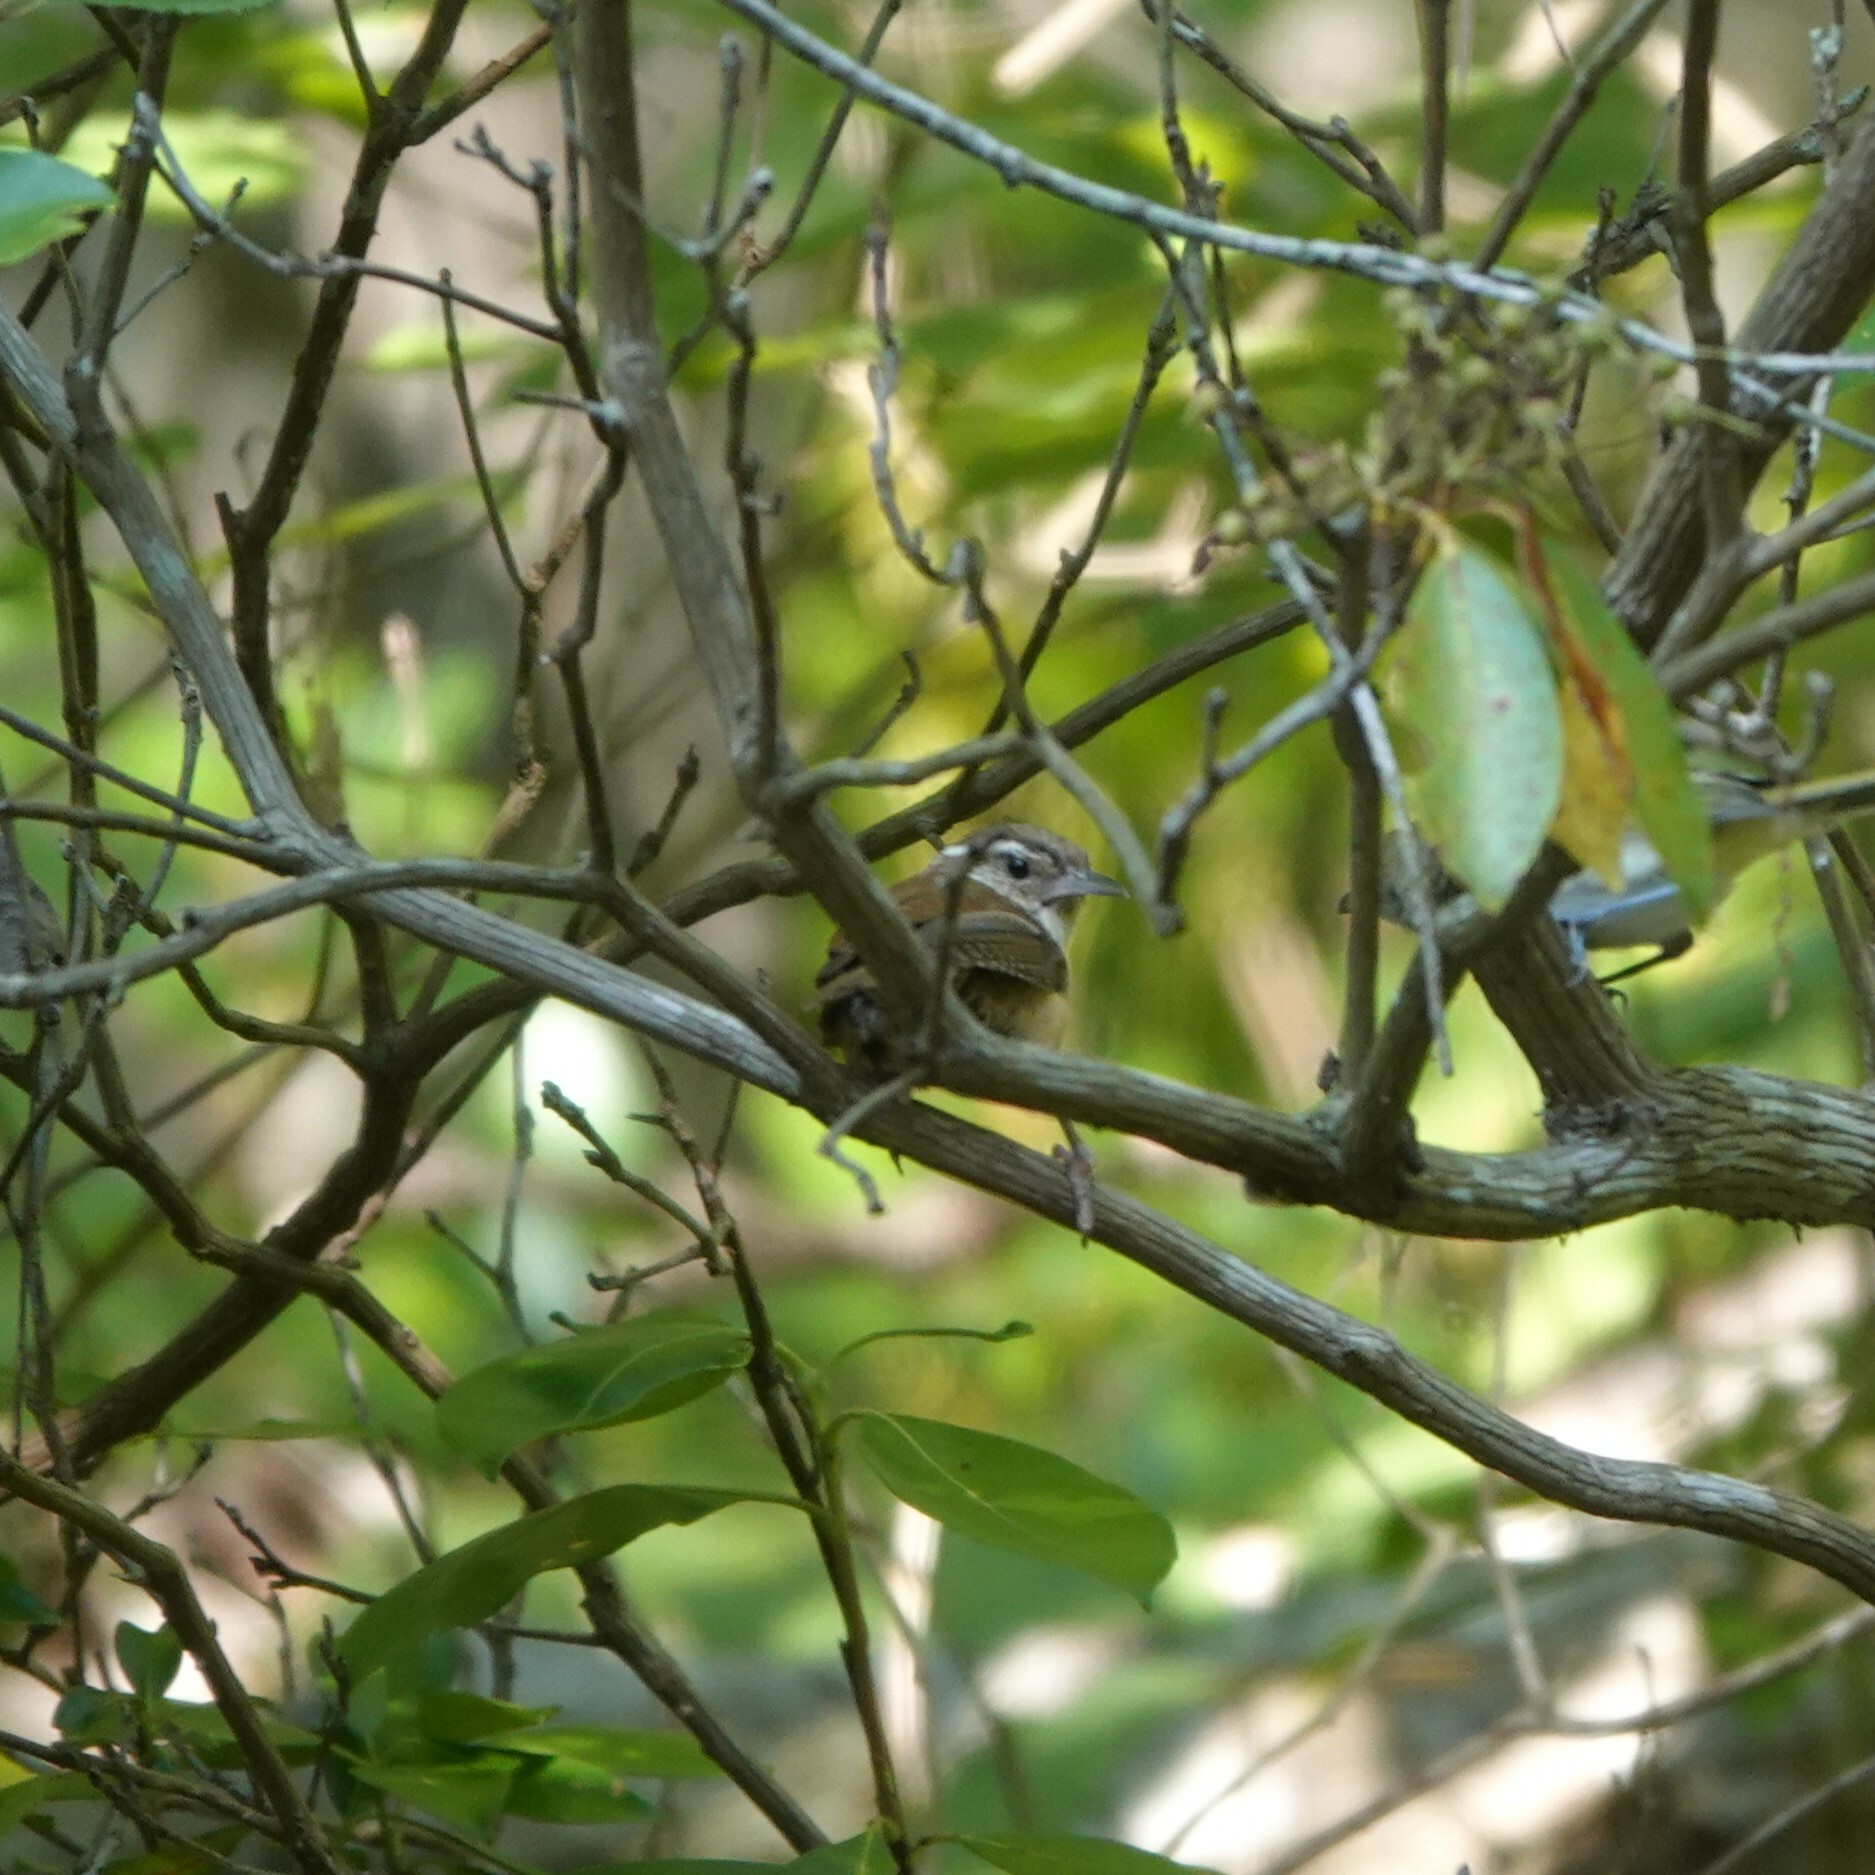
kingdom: Animalia
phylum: Chordata
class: Aves
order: Passeriformes
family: Troglodytidae
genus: Thryothorus
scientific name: Thryothorus ludovicianus
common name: Carolina wren
